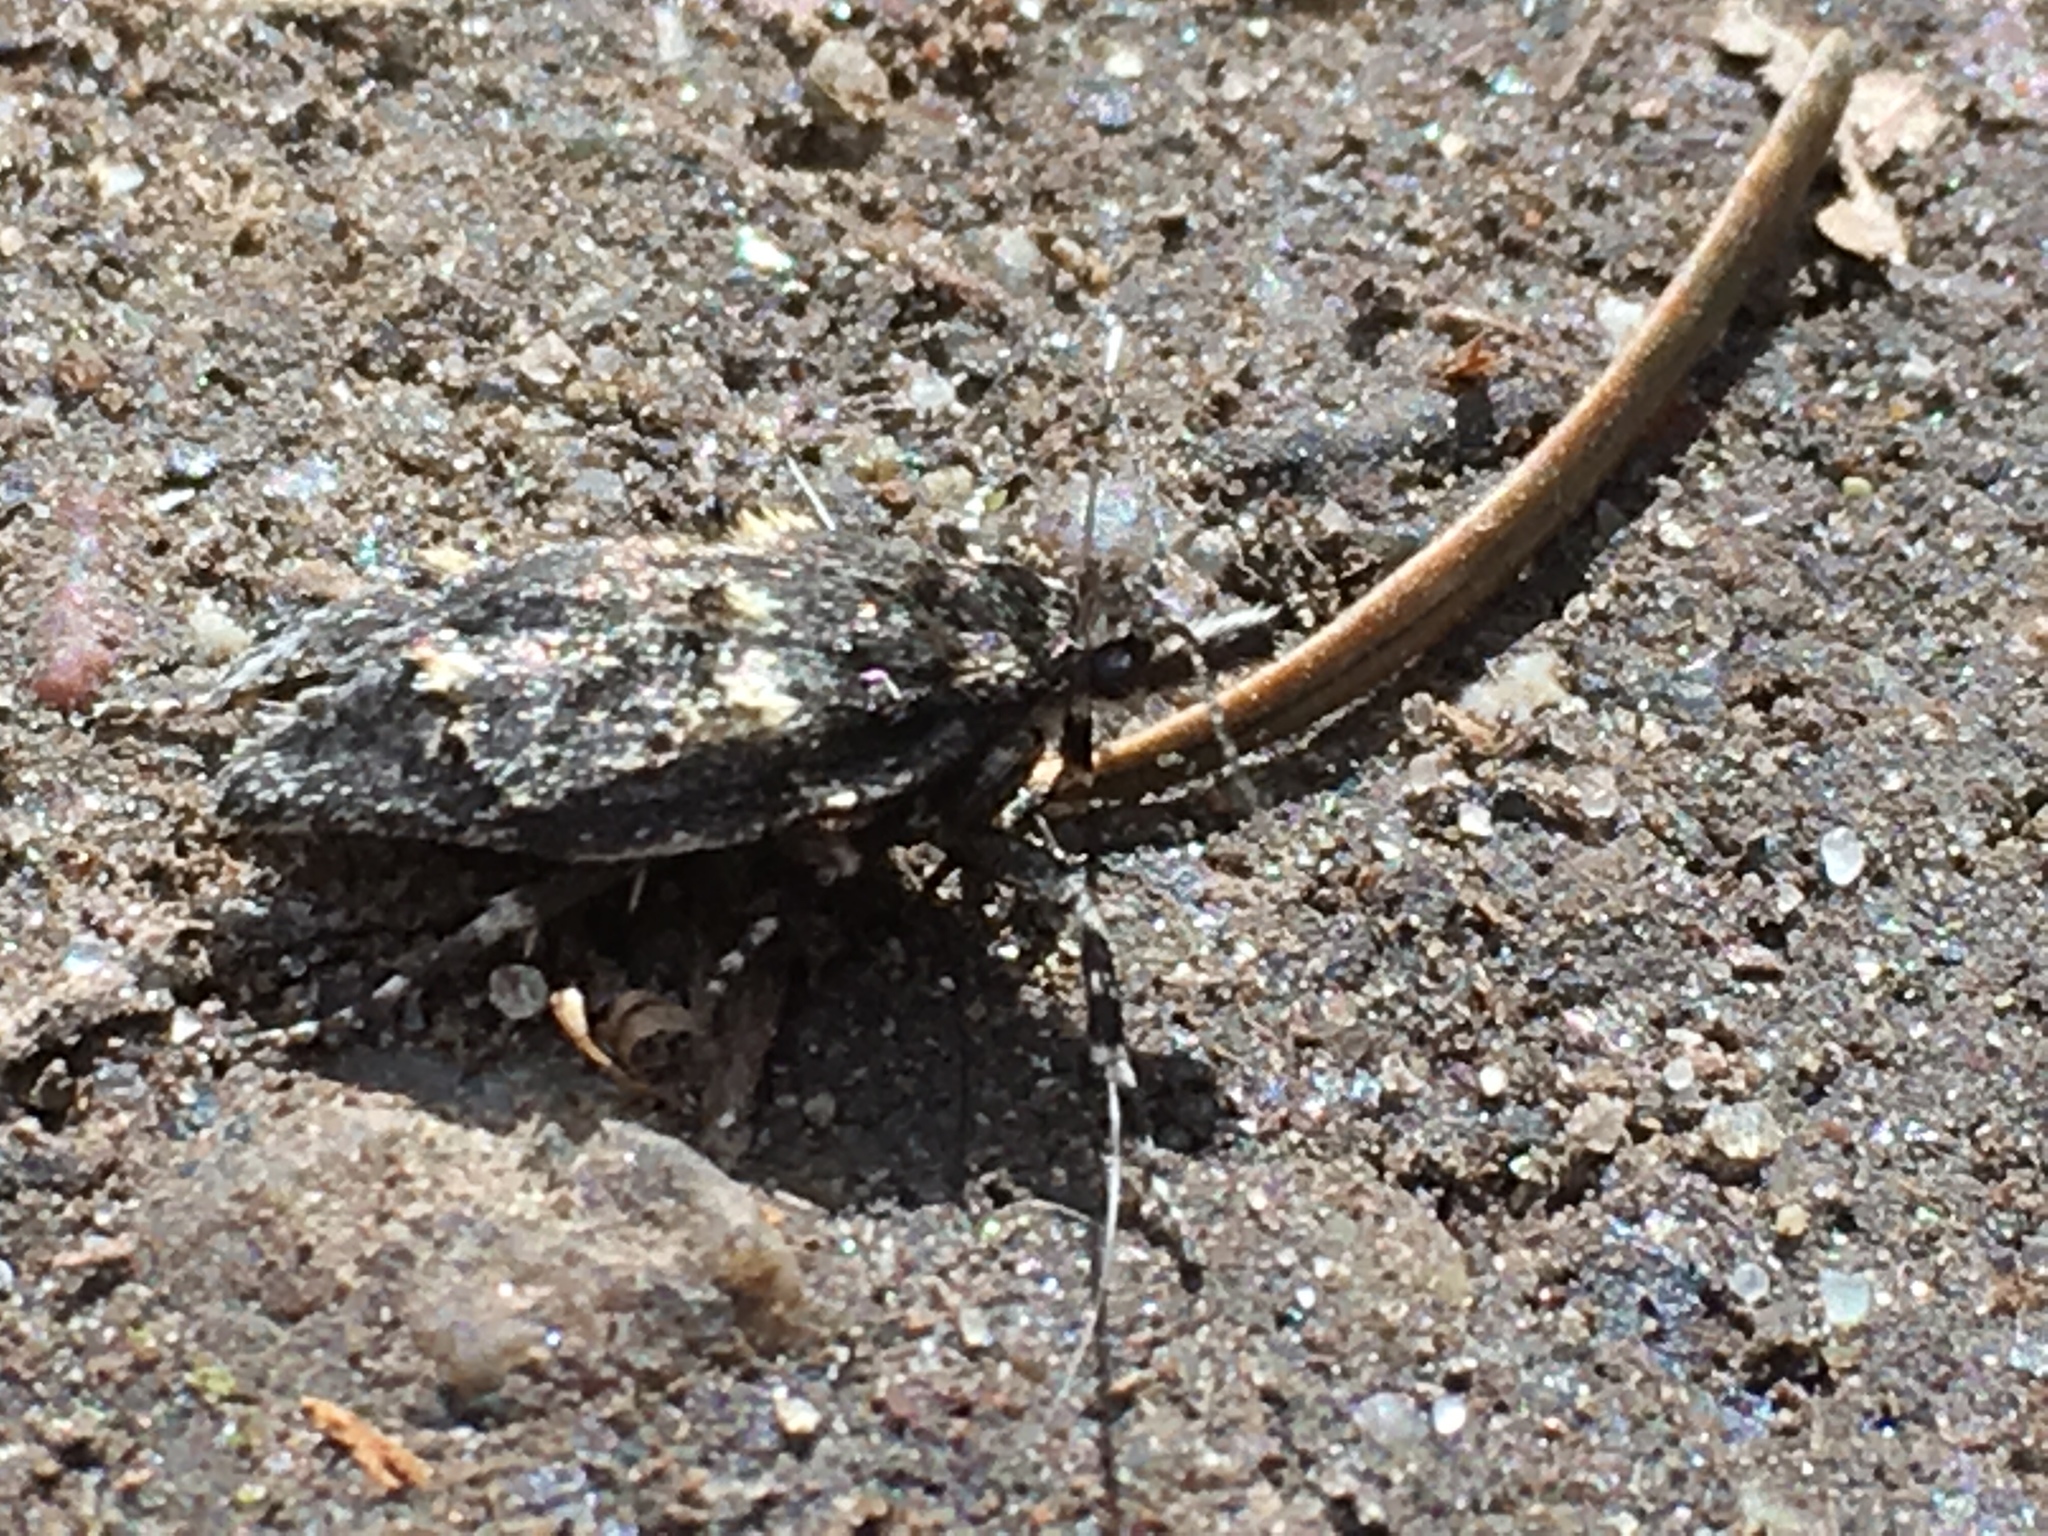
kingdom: Animalia
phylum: Arthropoda
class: Insecta
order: Lepidoptera
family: Lypusidae
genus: Diurnea
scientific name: Diurnea fagella
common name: March tubic
